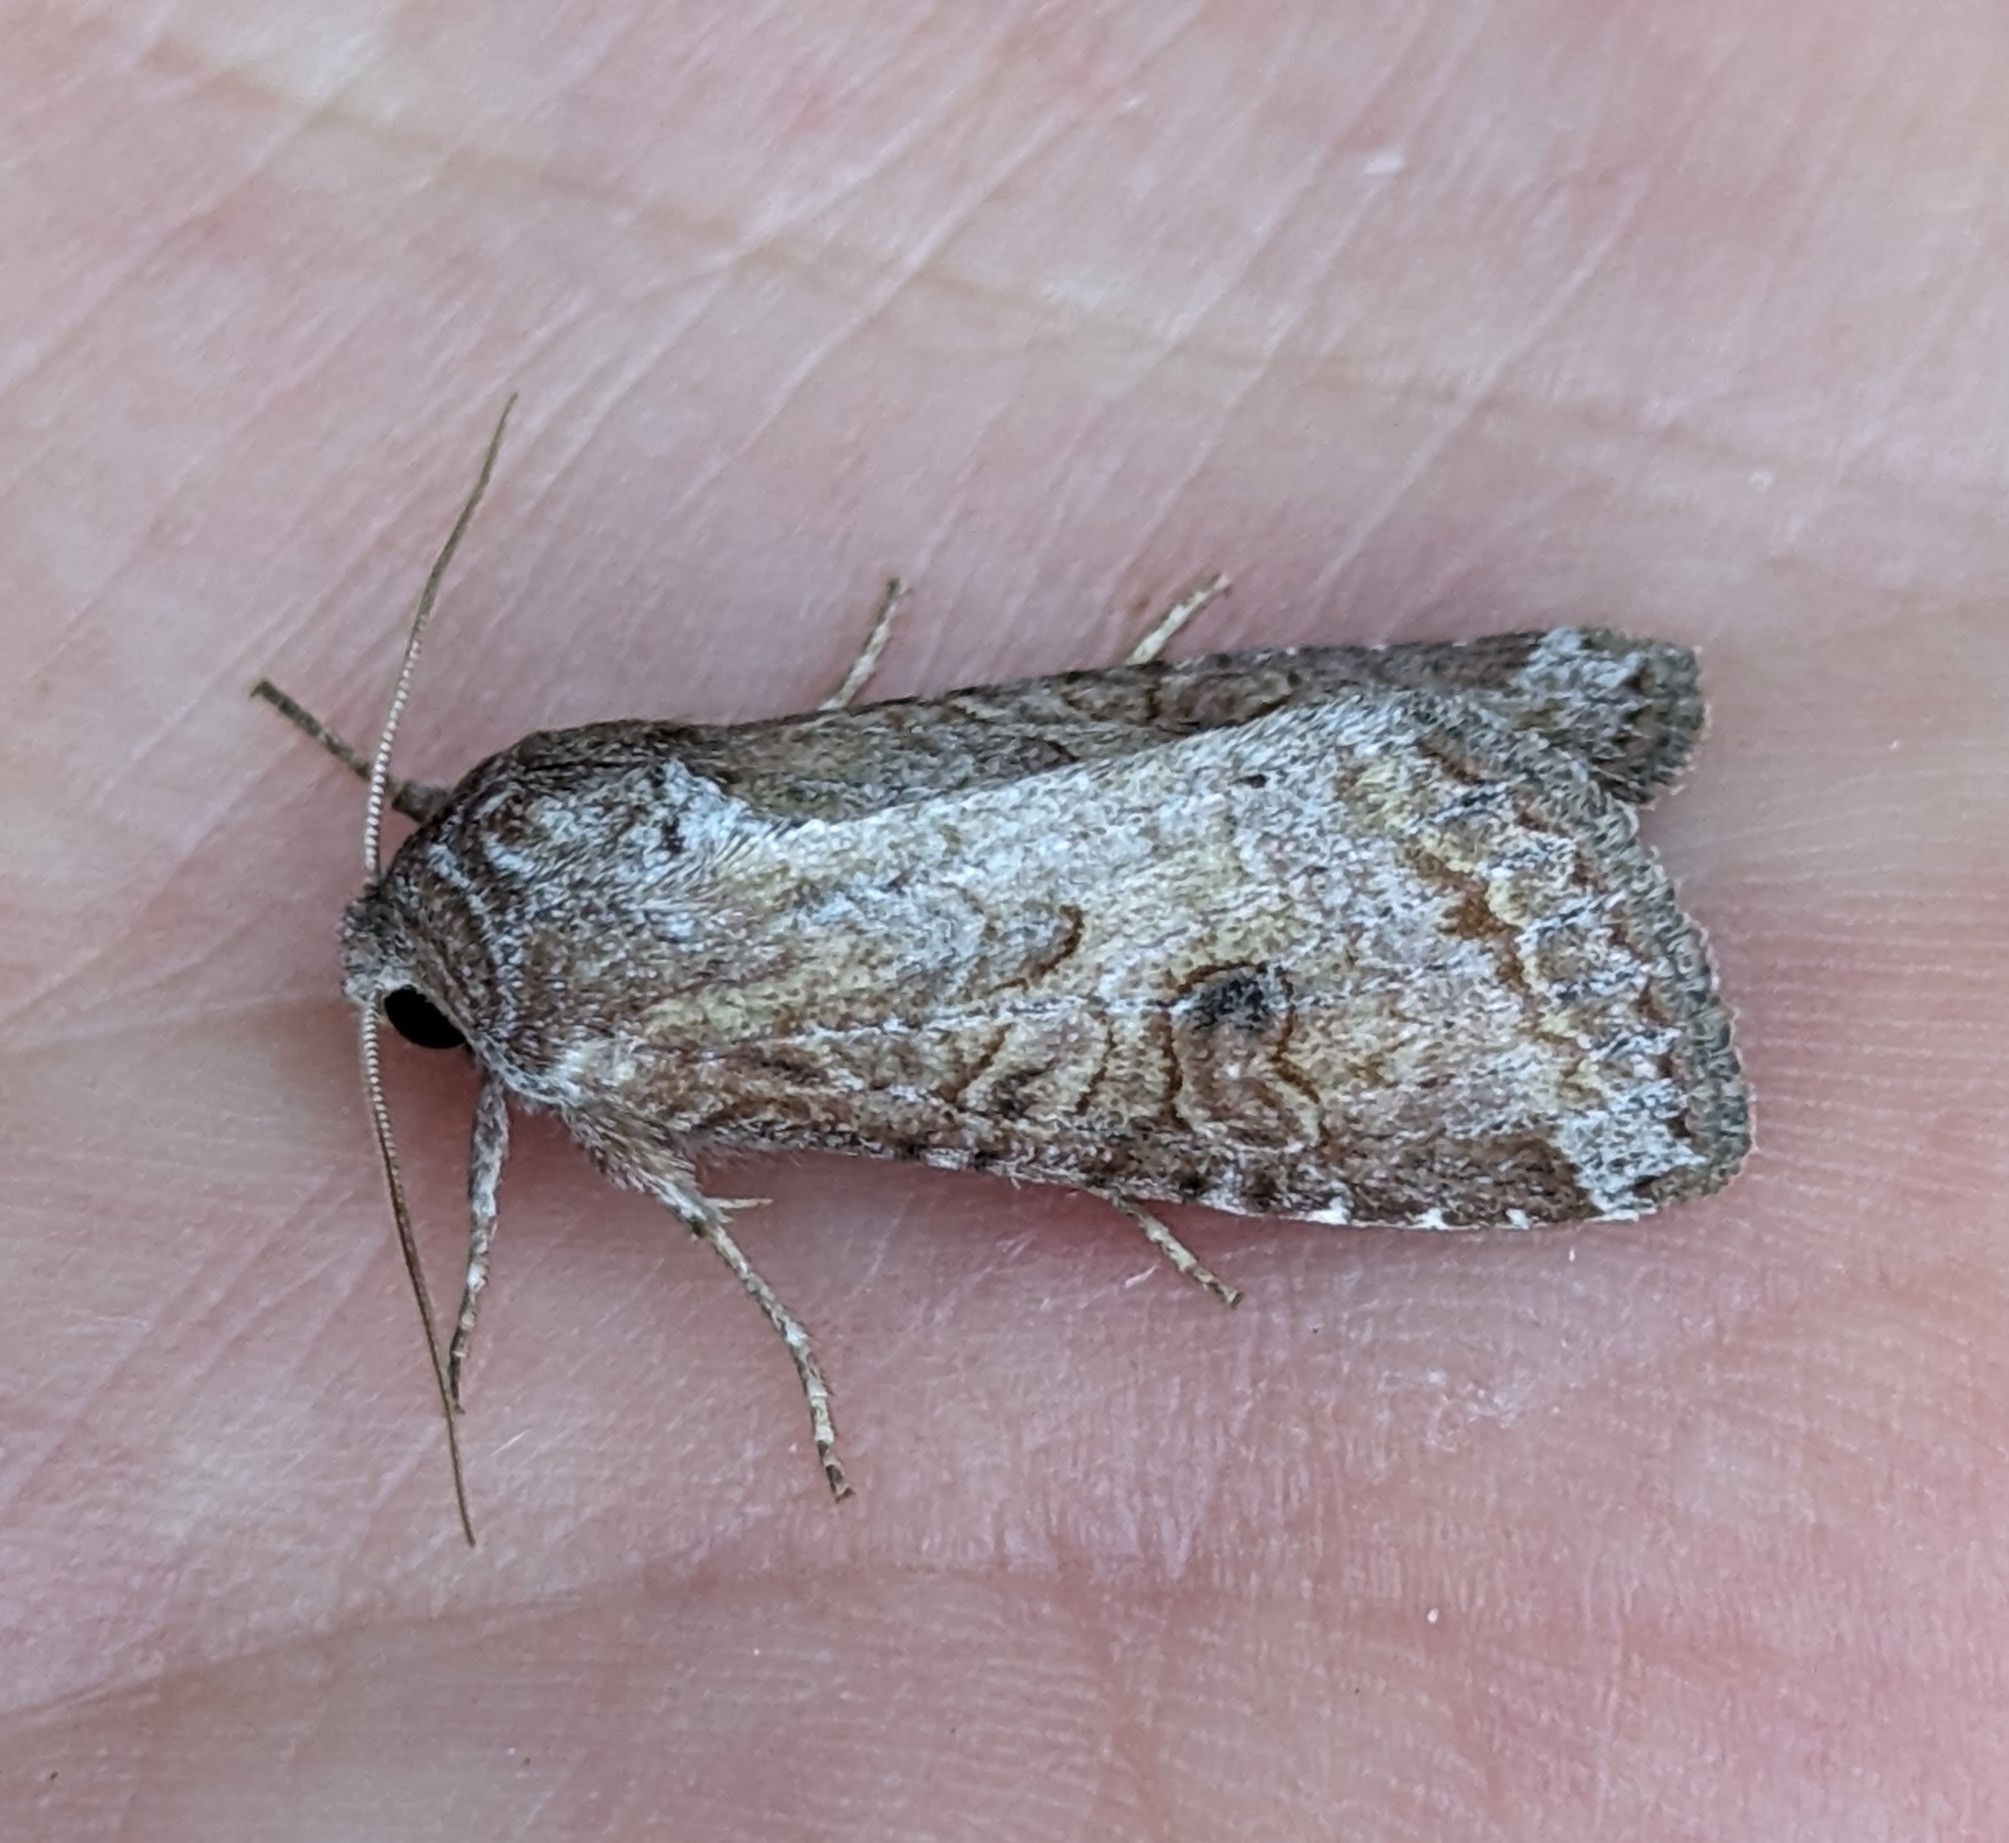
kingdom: Animalia
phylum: Arthropoda
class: Insecta
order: Lepidoptera
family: Noctuidae
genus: Trichordestra
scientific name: Trichordestra lilacina
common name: Aster cutworm
